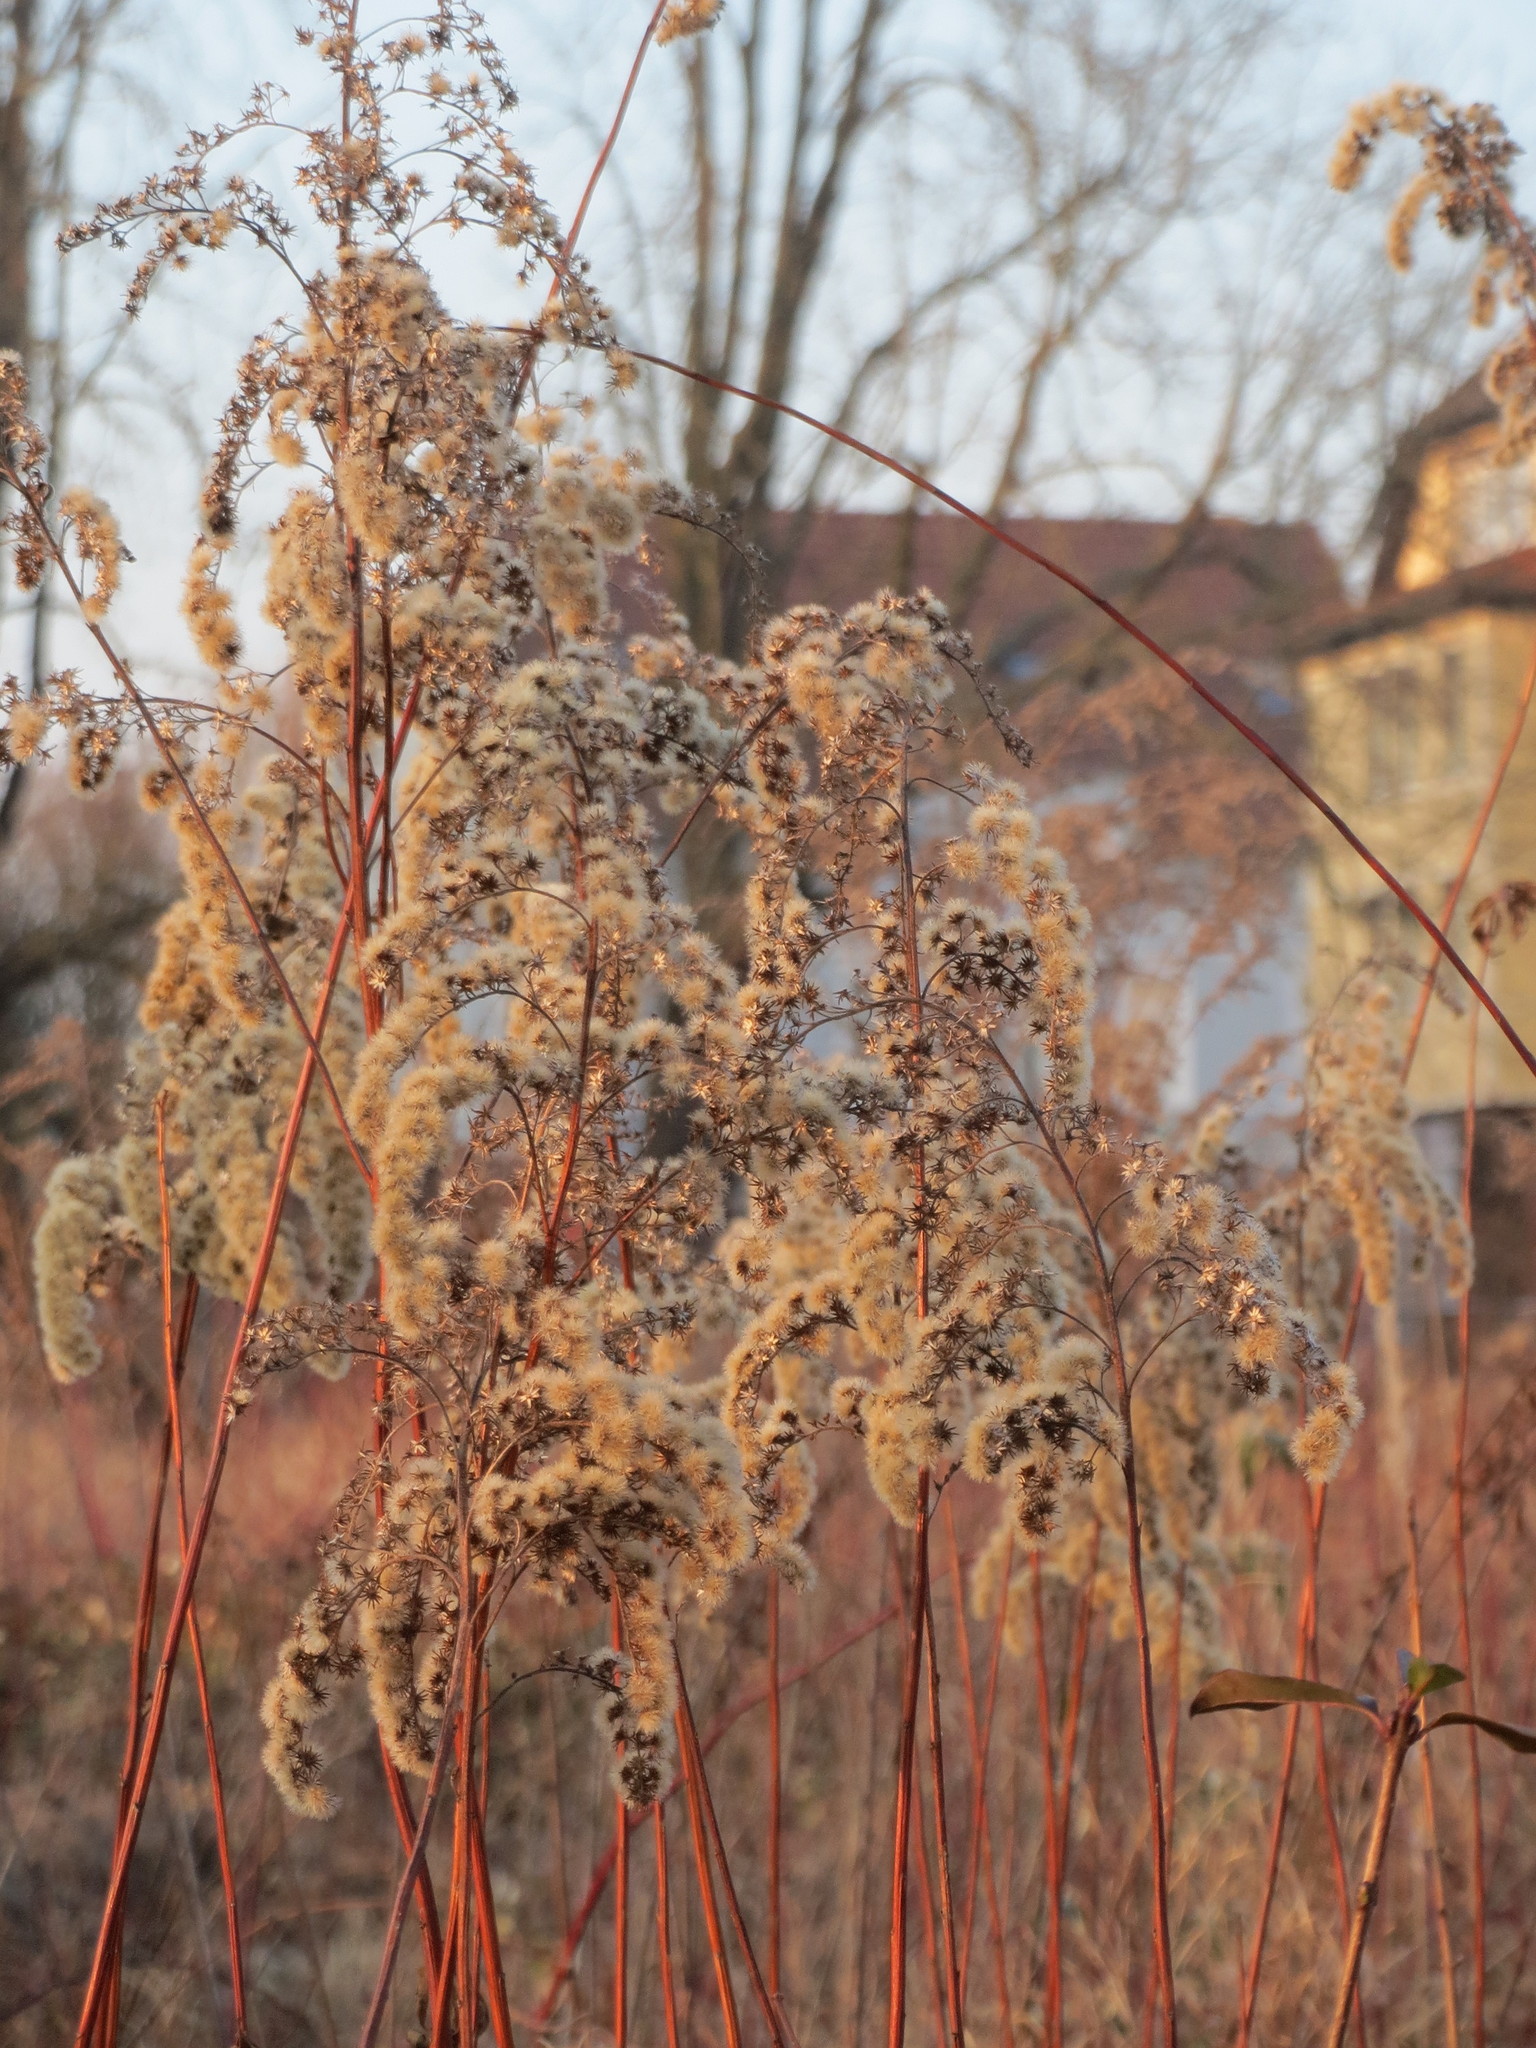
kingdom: Plantae
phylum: Tracheophyta
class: Magnoliopsida
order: Asterales
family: Asteraceae
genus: Solidago
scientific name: Solidago canadensis
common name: Canada goldenrod
